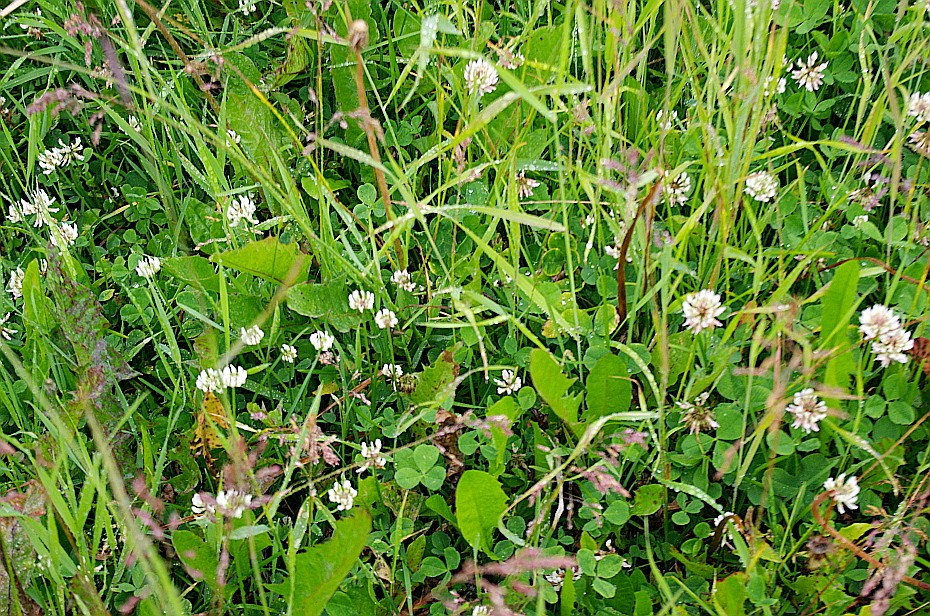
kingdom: Plantae
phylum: Tracheophyta
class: Magnoliopsida
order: Fabales
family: Fabaceae
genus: Trifolium
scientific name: Trifolium repens
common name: White clover
